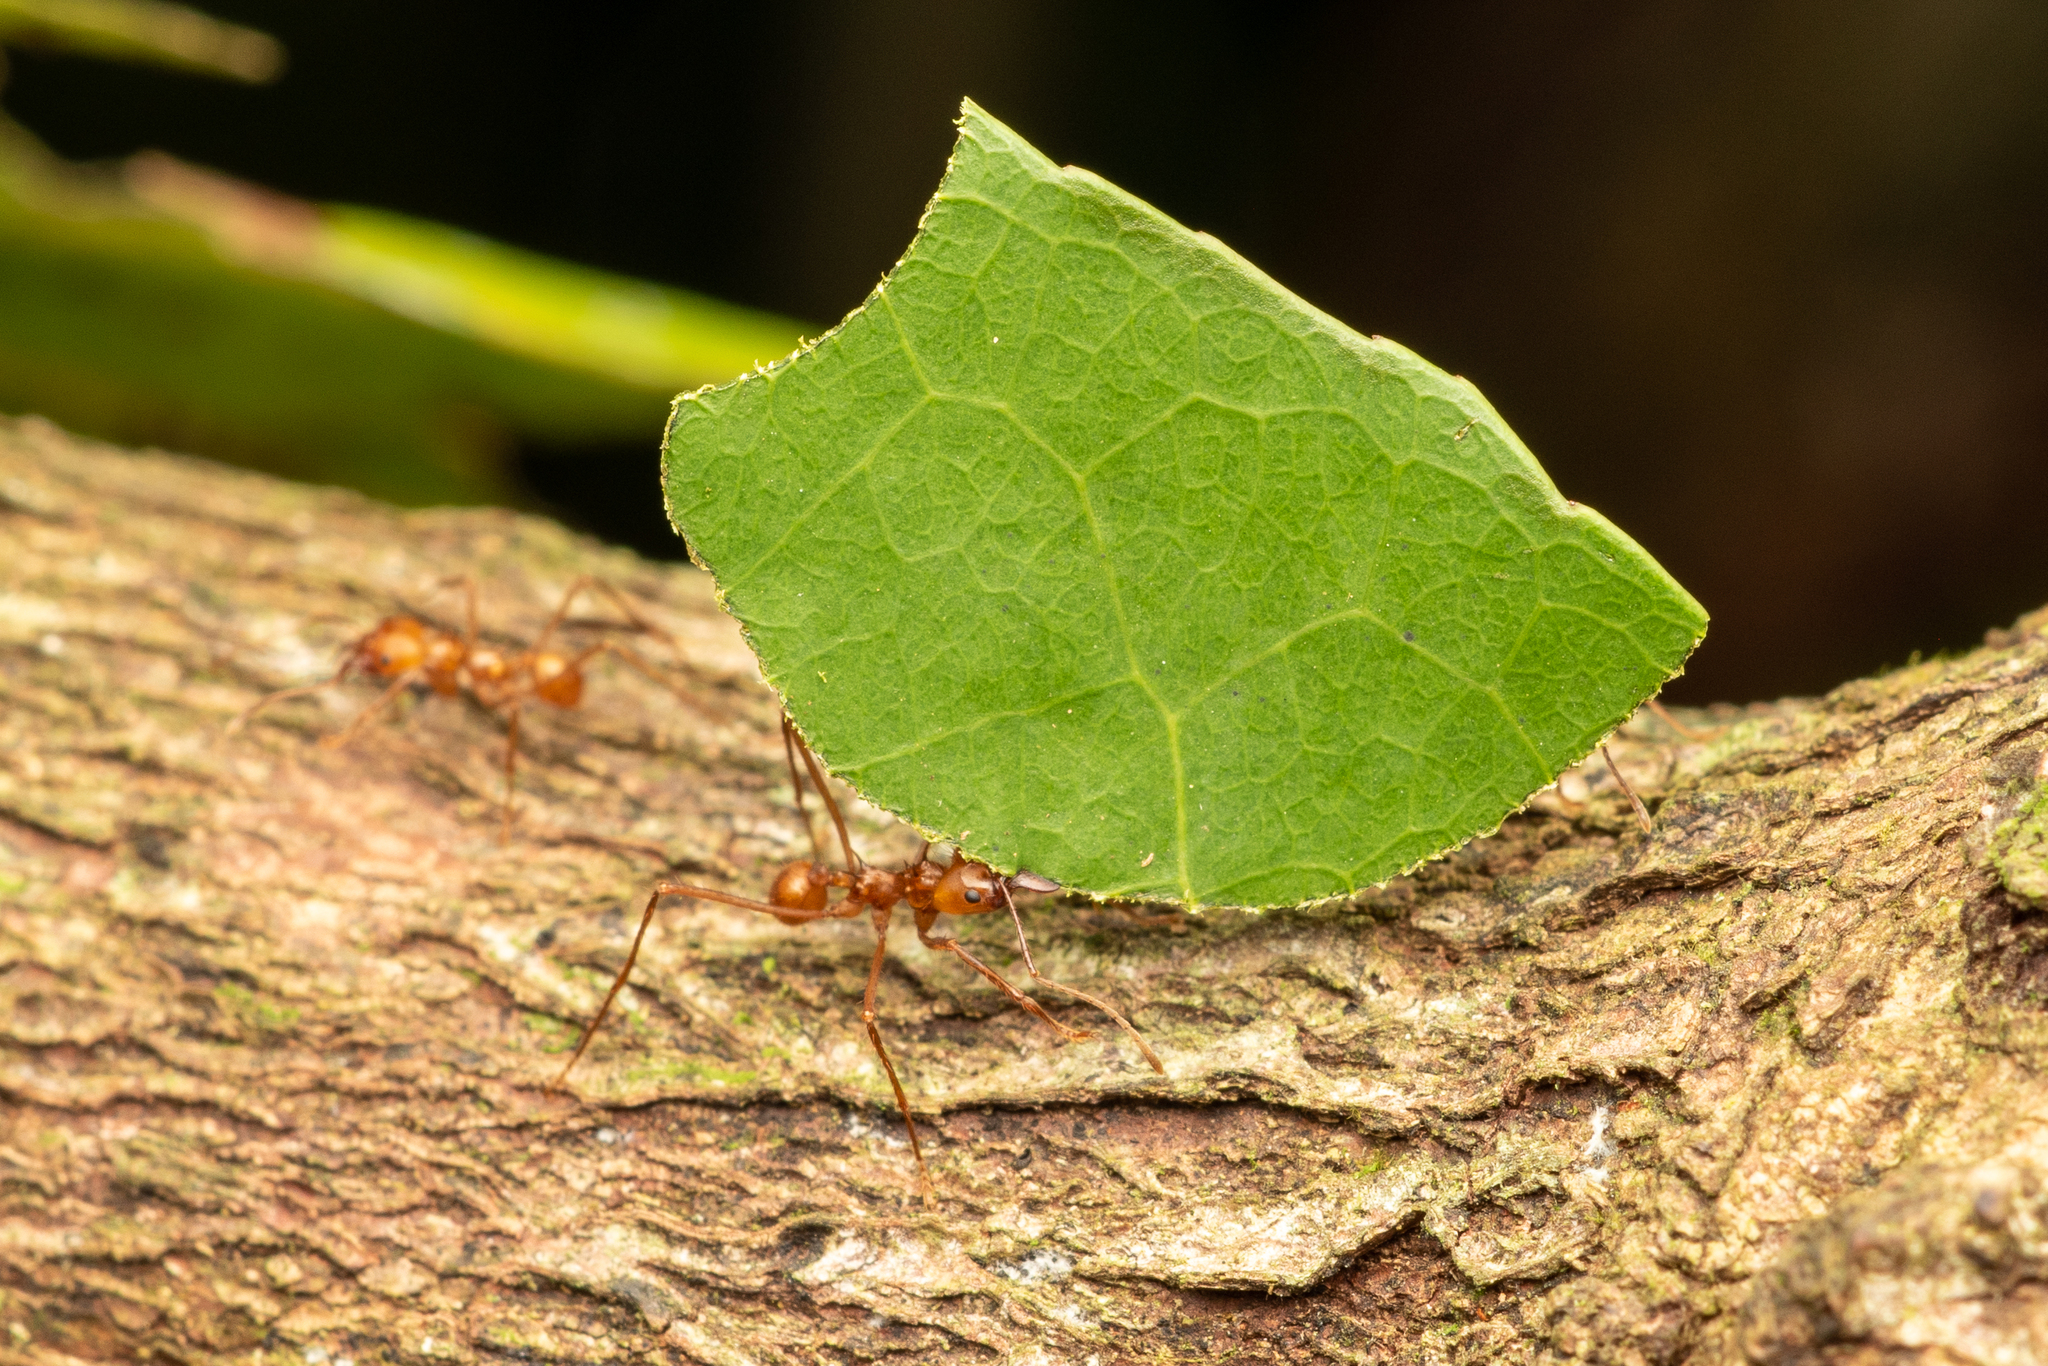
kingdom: Animalia
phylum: Arthropoda
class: Insecta
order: Hymenoptera
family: Formicidae
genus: Atta
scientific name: Atta cephalotes
